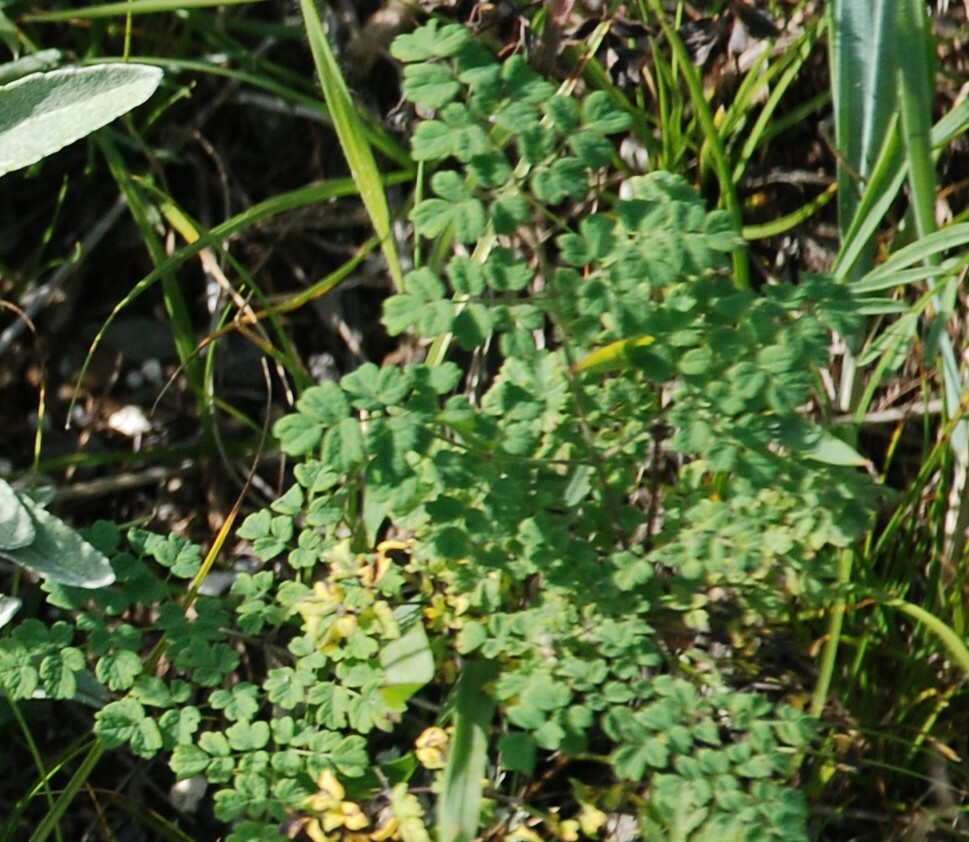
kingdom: Plantae
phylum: Tracheophyta
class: Magnoliopsida
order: Ranunculales
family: Ranunculaceae
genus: Thalictrum
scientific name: Thalictrum foetidum
